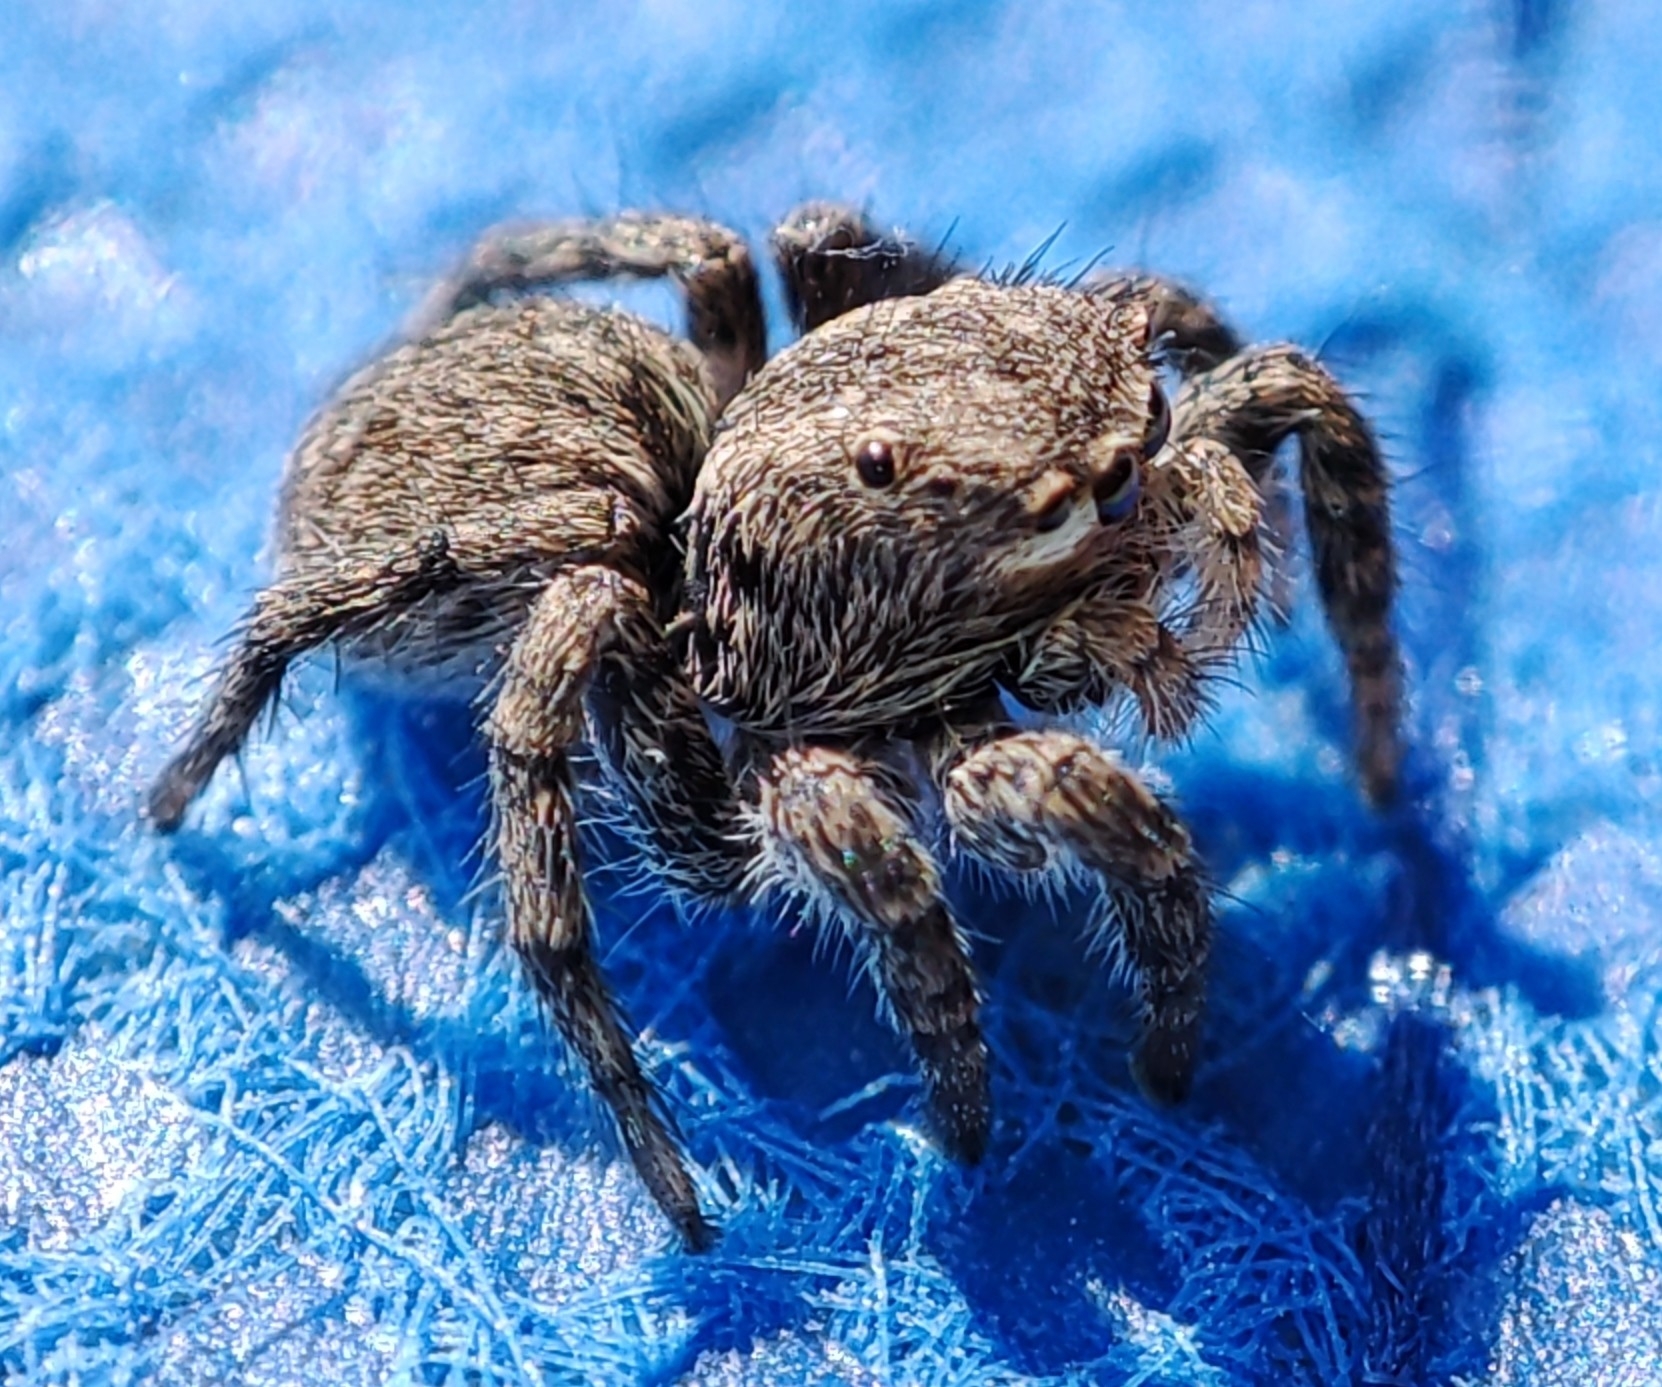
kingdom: Animalia
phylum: Arthropoda
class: Arachnida
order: Araneae
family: Salticidae
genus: Aelurillus
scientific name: Aelurillus v-insignitus
